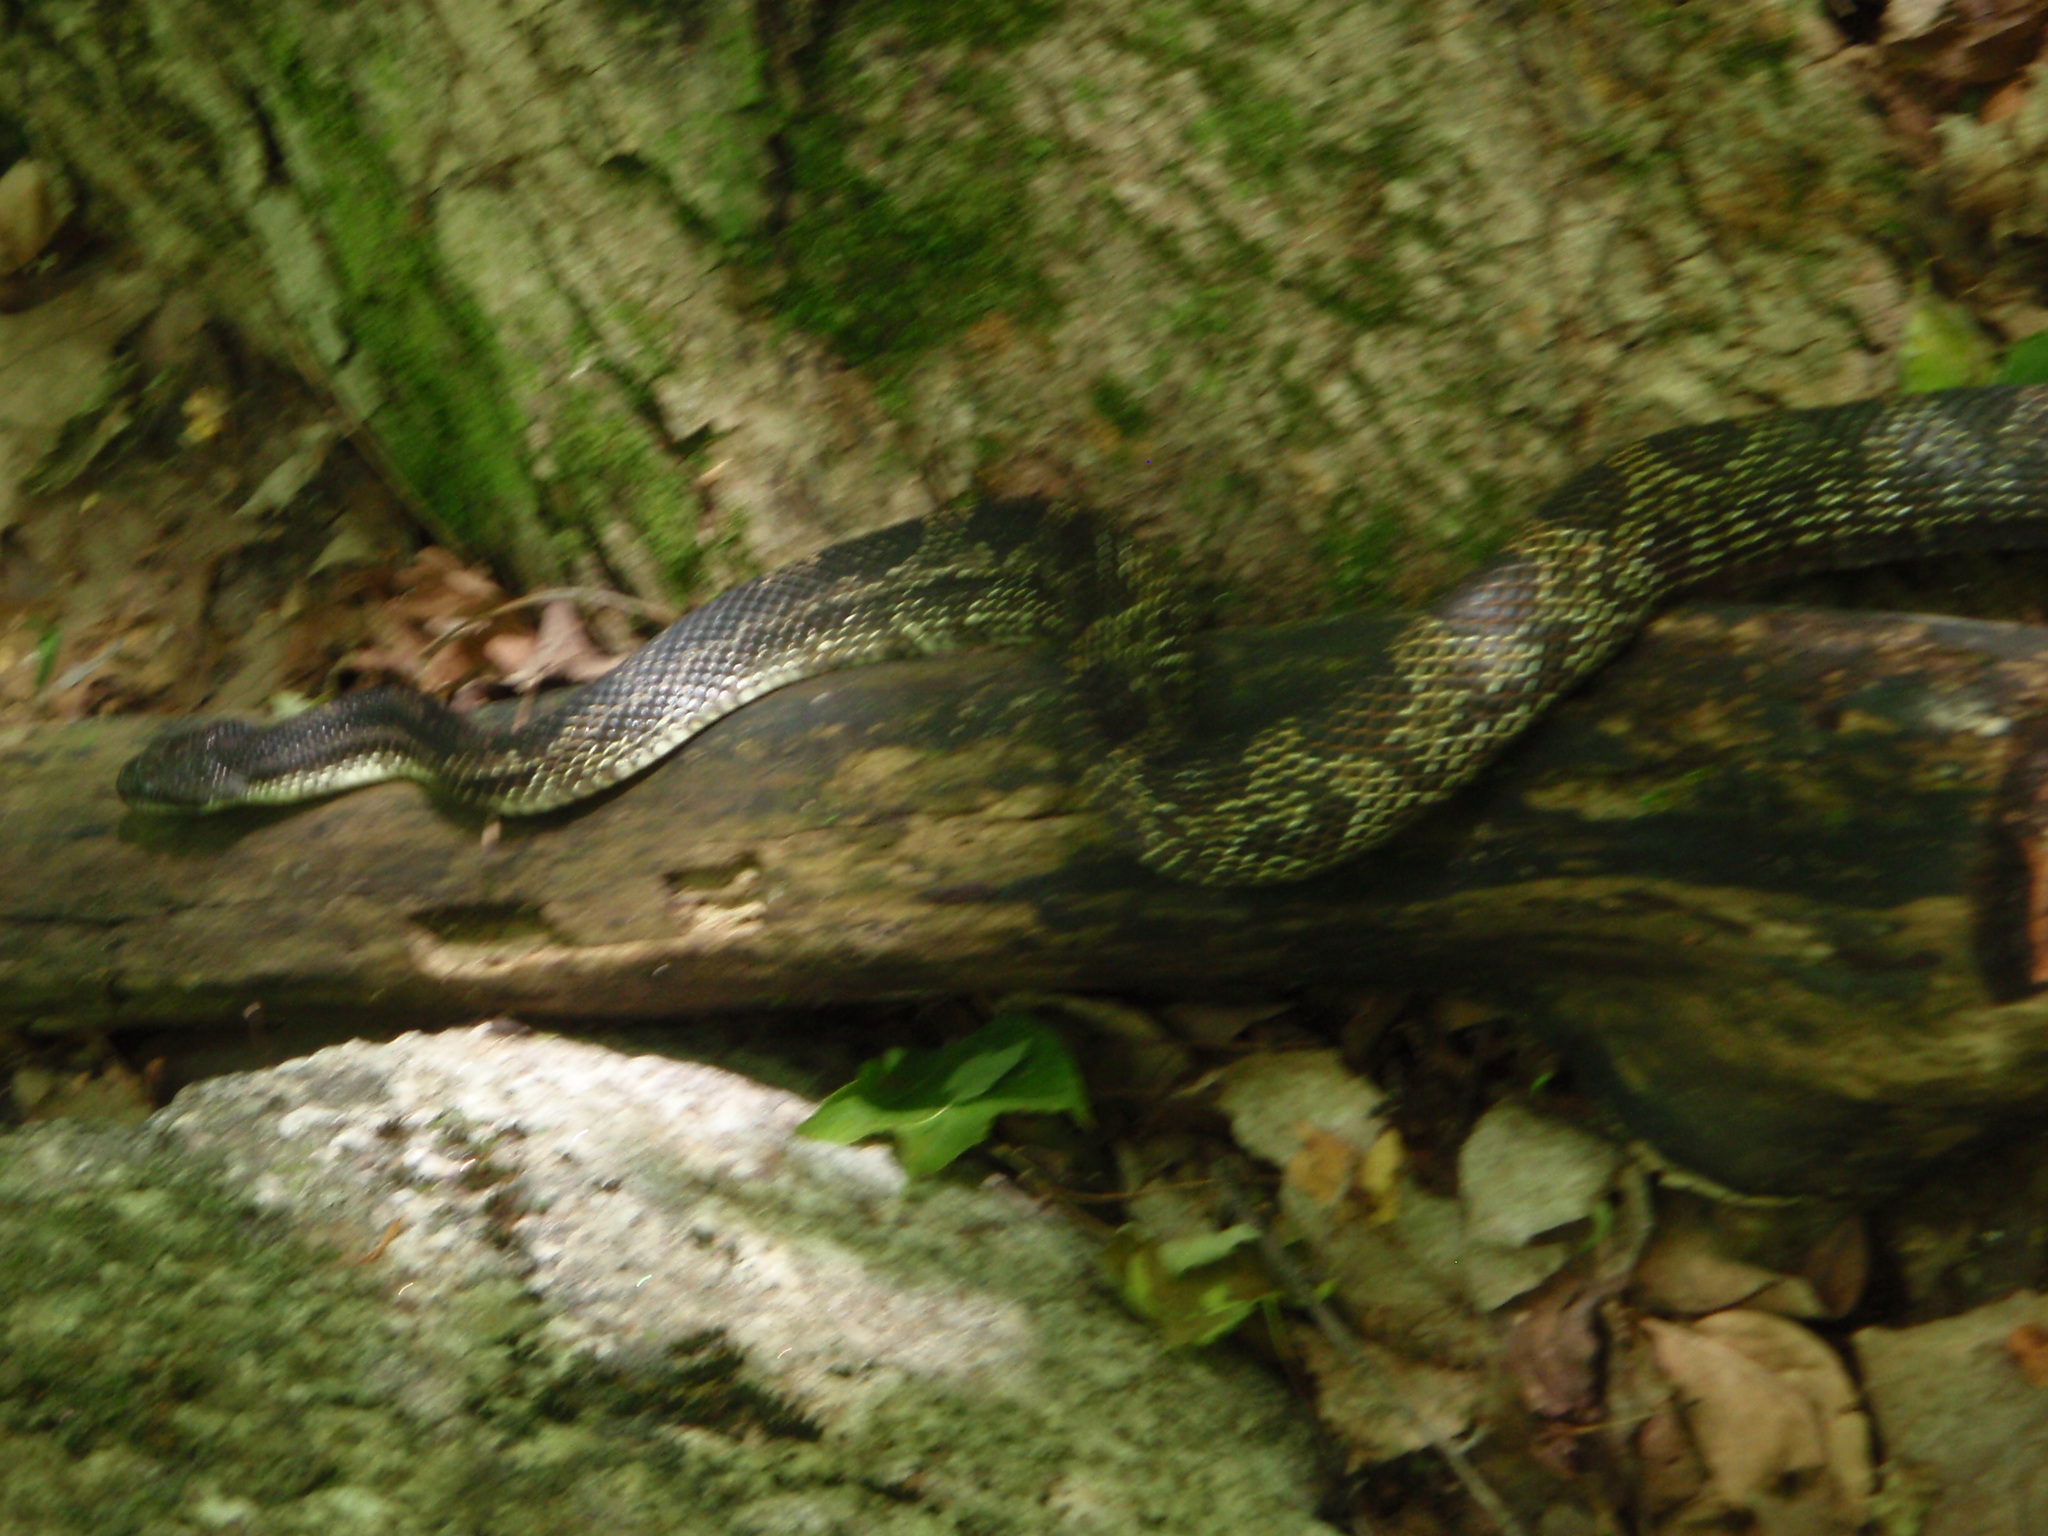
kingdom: Animalia
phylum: Chordata
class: Squamata
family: Colubridae
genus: Pantherophis
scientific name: Pantherophis spiloides
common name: Gray rat snake
